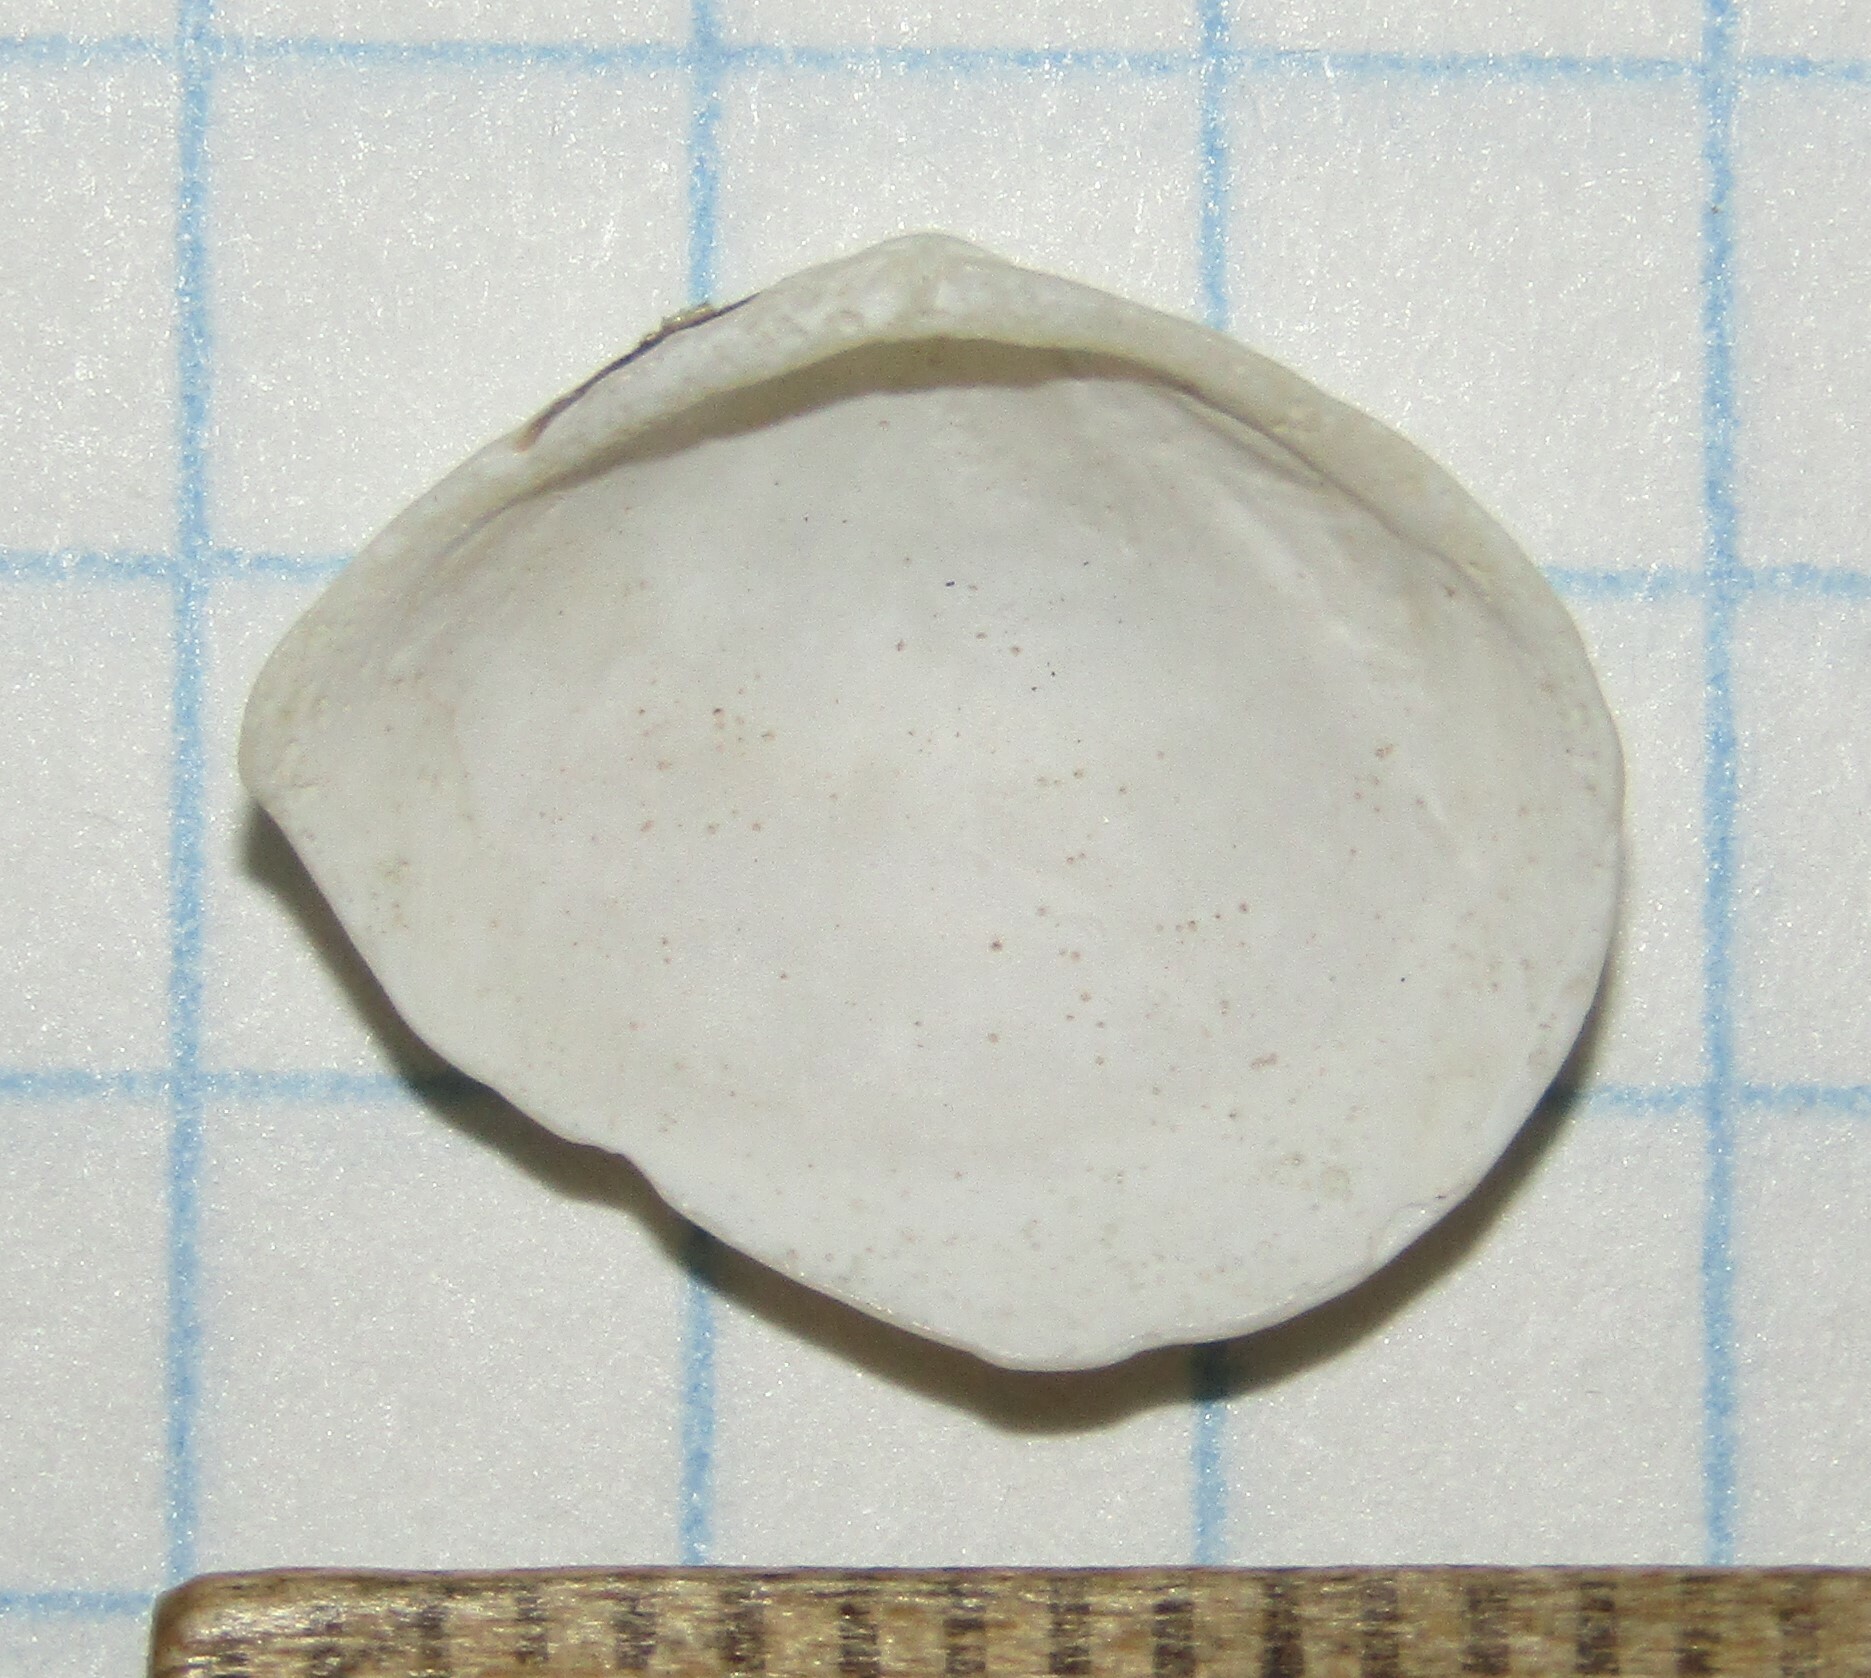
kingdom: Animalia
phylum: Mollusca
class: Bivalvia
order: Cardiida
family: Tellinidae
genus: Macoma
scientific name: Macoma balthica
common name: Baltic tellin
